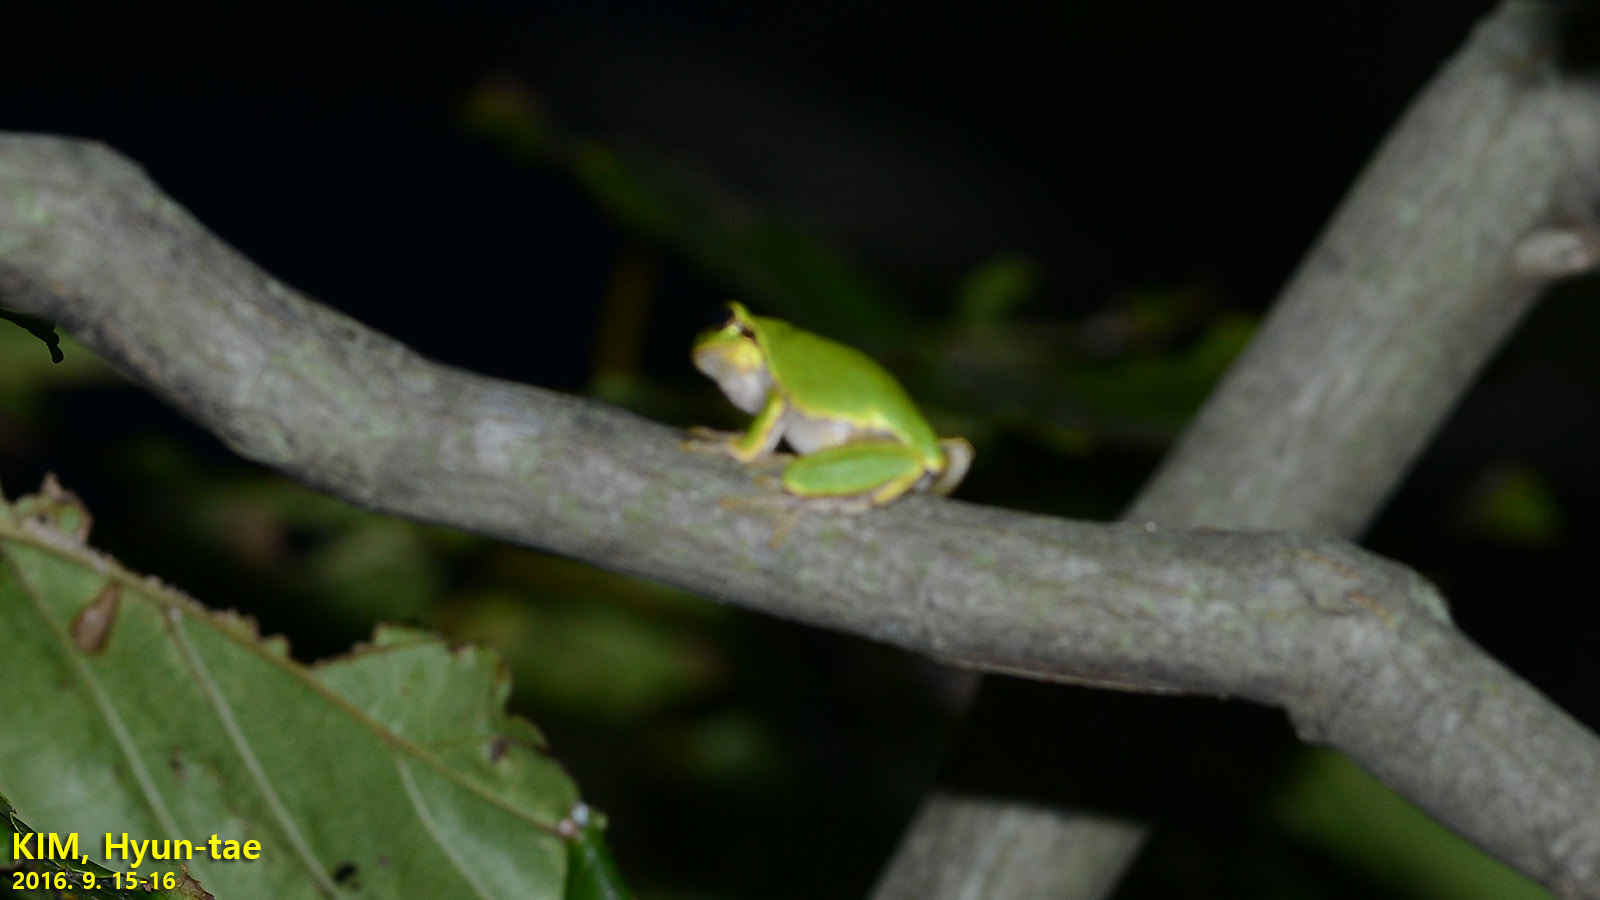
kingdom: Animalia
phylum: Chordata
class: Amphibia
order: Anura
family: Hylidae
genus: Dryophytes
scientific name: Dryophytes japonicus
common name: Japanese treefrog
